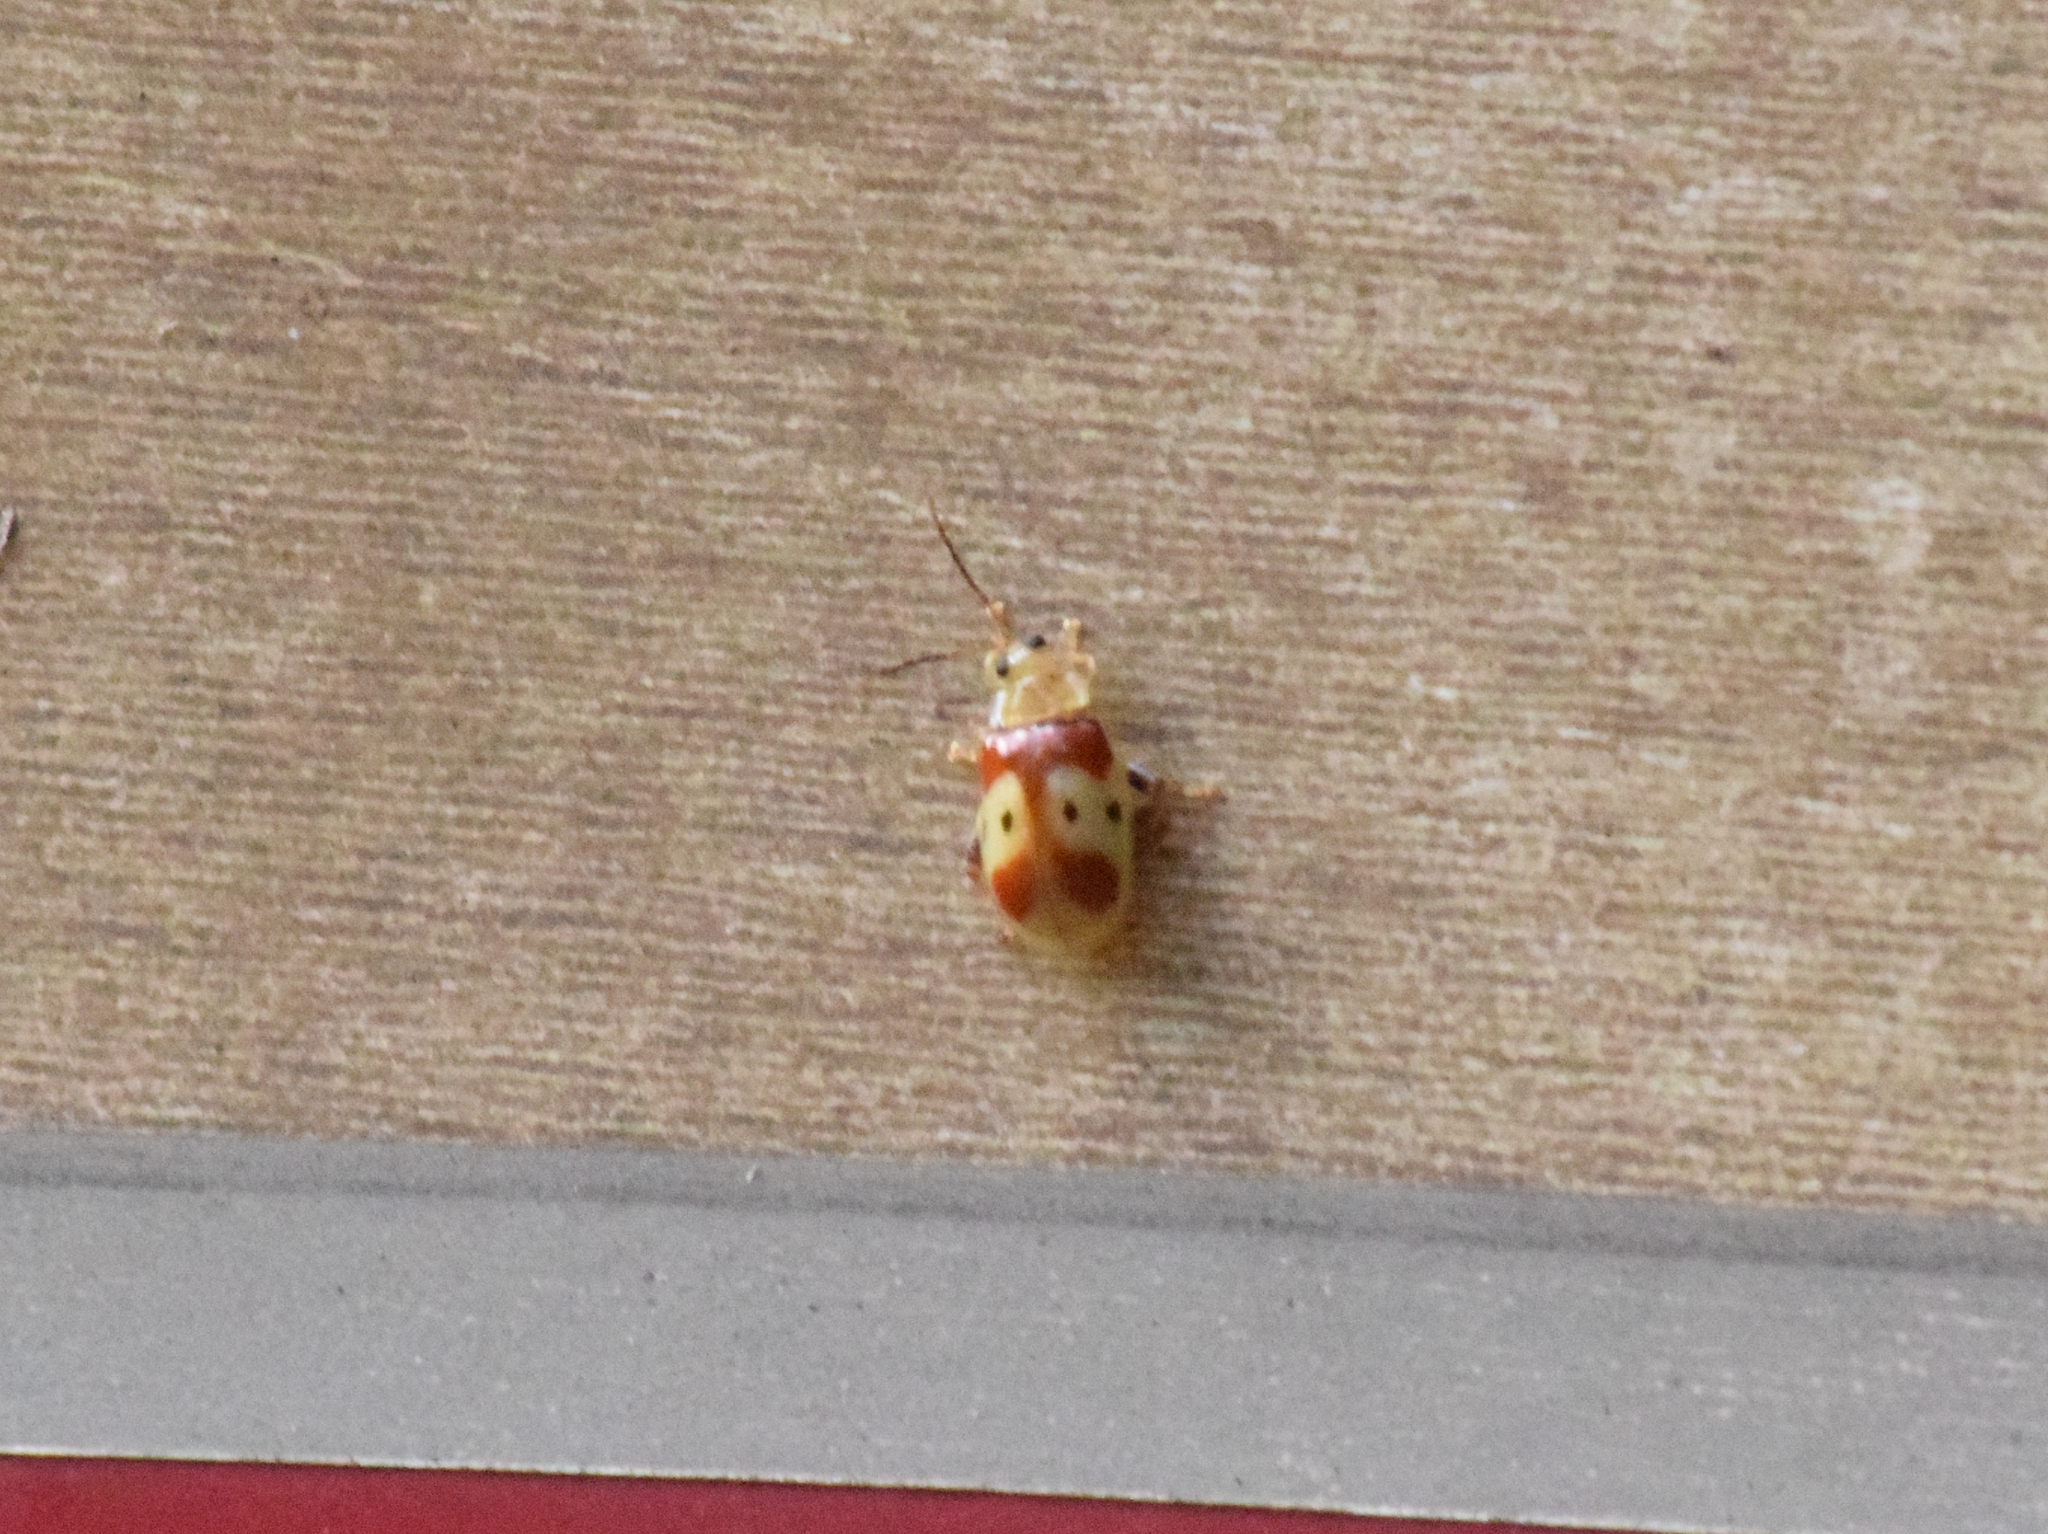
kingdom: Animalia
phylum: Arthropoda
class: Insecta
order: Coleoptera
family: Chrysomelidae
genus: Walterianella
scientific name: Walterianella
